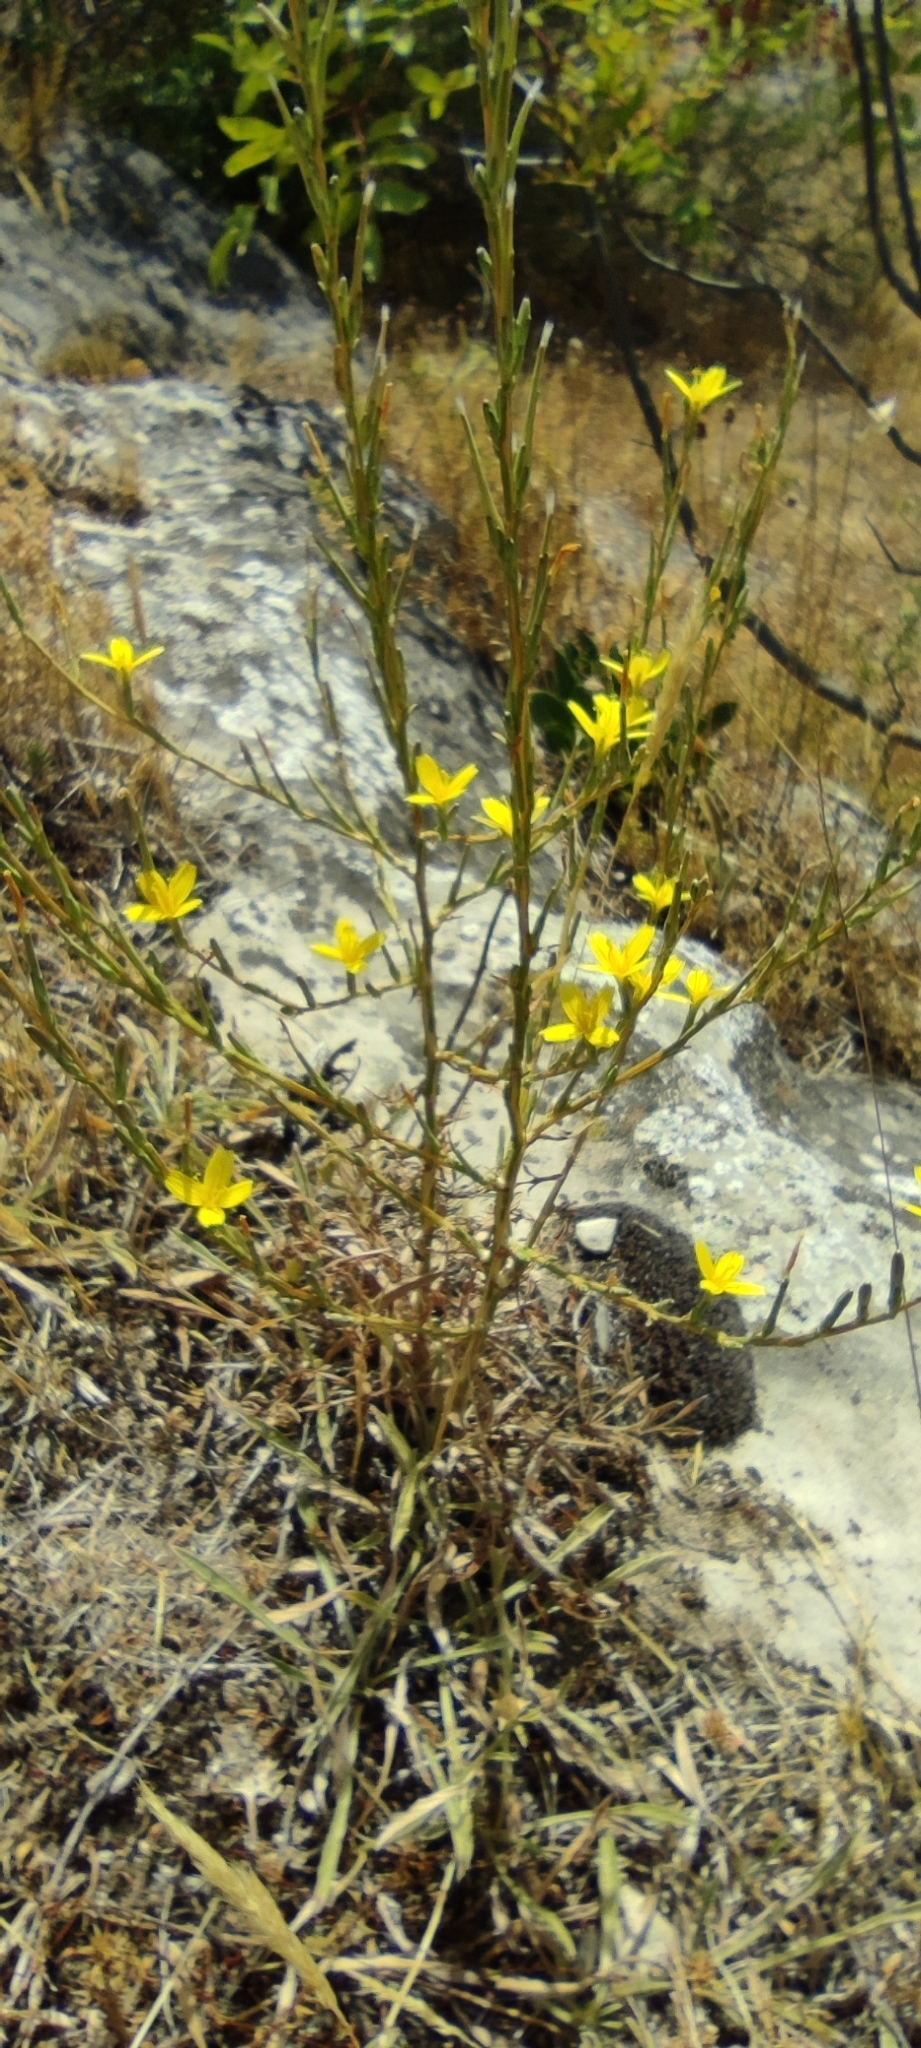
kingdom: Plantae
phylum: Tracheophyta
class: Magnoliopsida
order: Asterales
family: Asteraceae
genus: Lactuca
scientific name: Lactuca viminea
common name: Pliant lettuce
